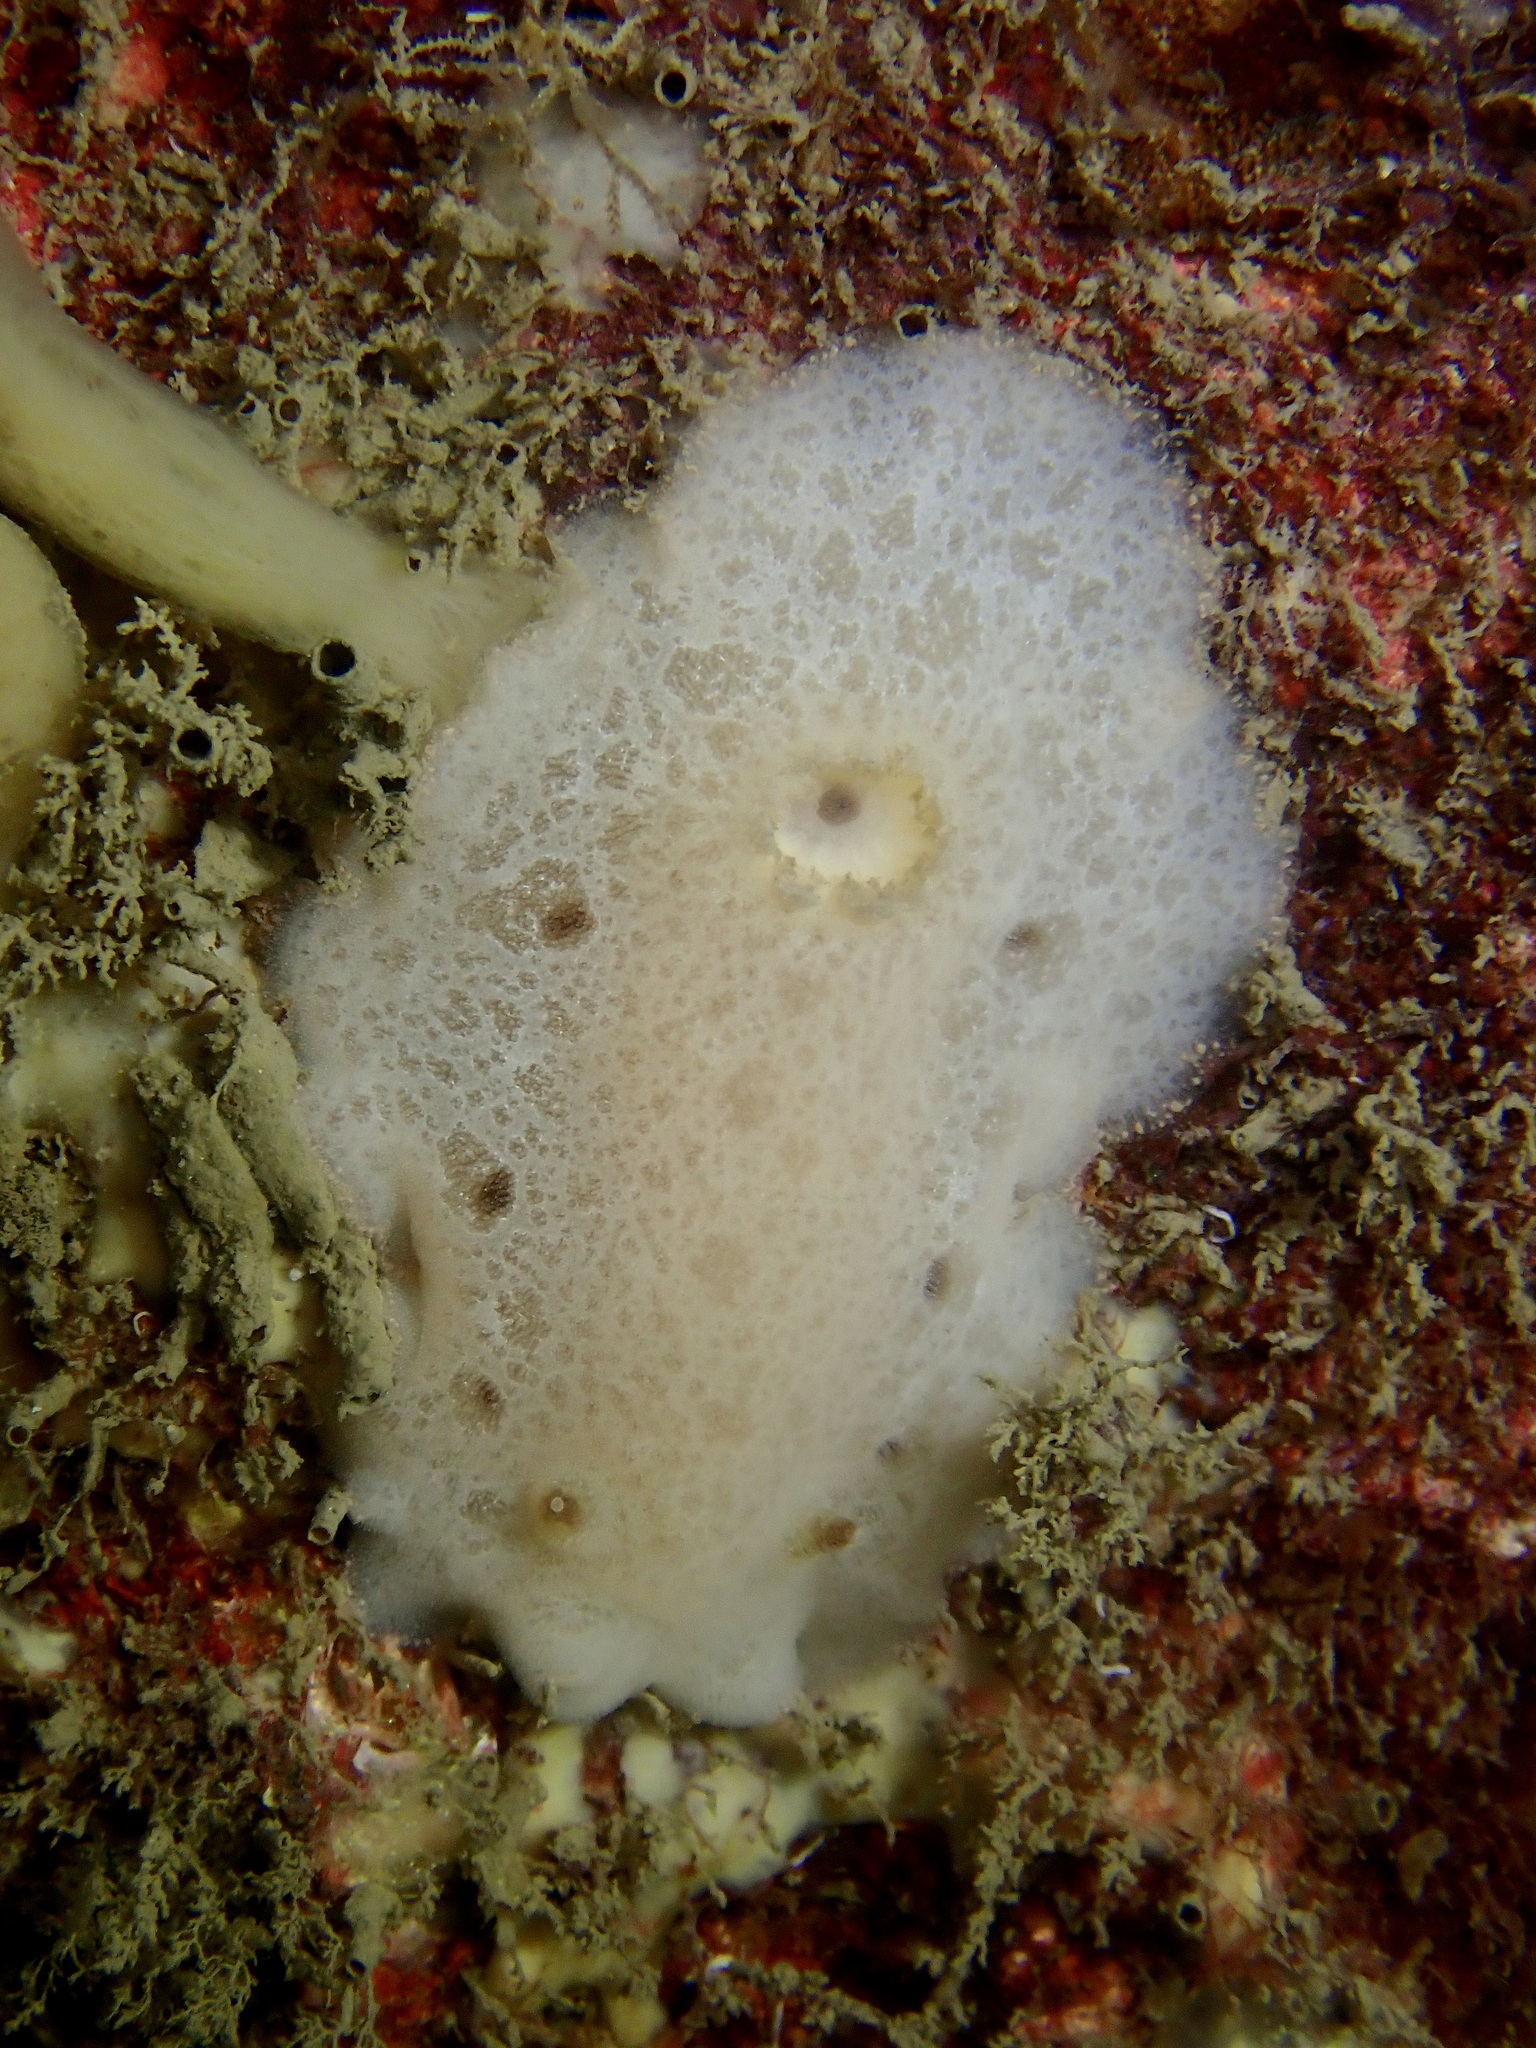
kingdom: Animalia
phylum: Mollusca
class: Gastropoda
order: Nudibranchia
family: Discodorididae
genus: Jorunna
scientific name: Jorunna tomentosa
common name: Grey sea slug
